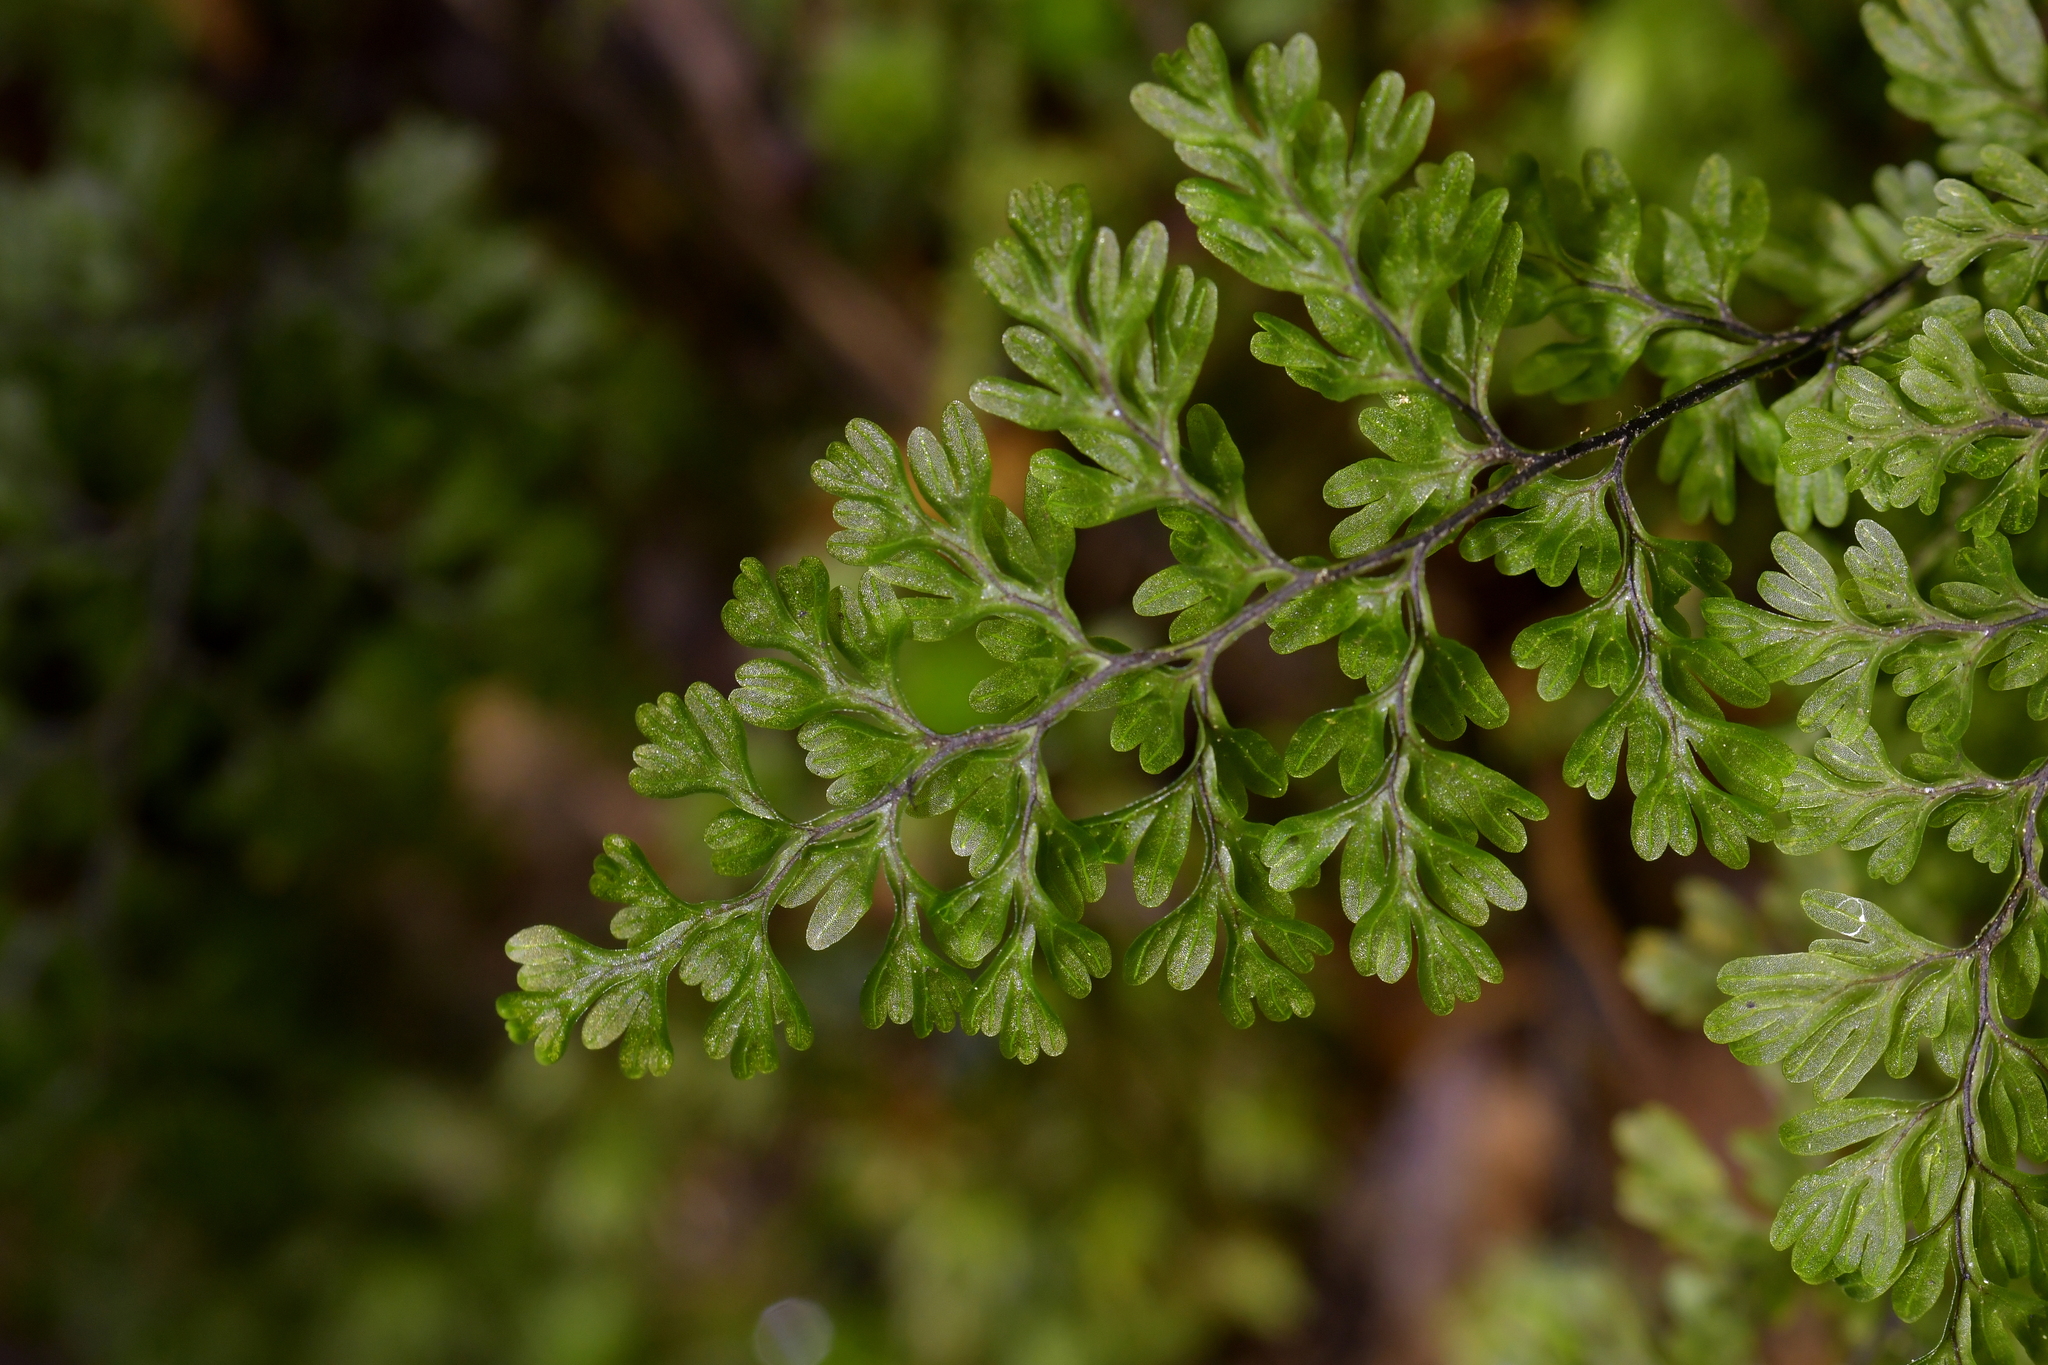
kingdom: Plantae
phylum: Tracheophyta
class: Polypodiopsida
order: Hymenophyllales
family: Hymenophyllaceae
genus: Hymenophyllum
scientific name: Hymenophyllum sanguinolentum
